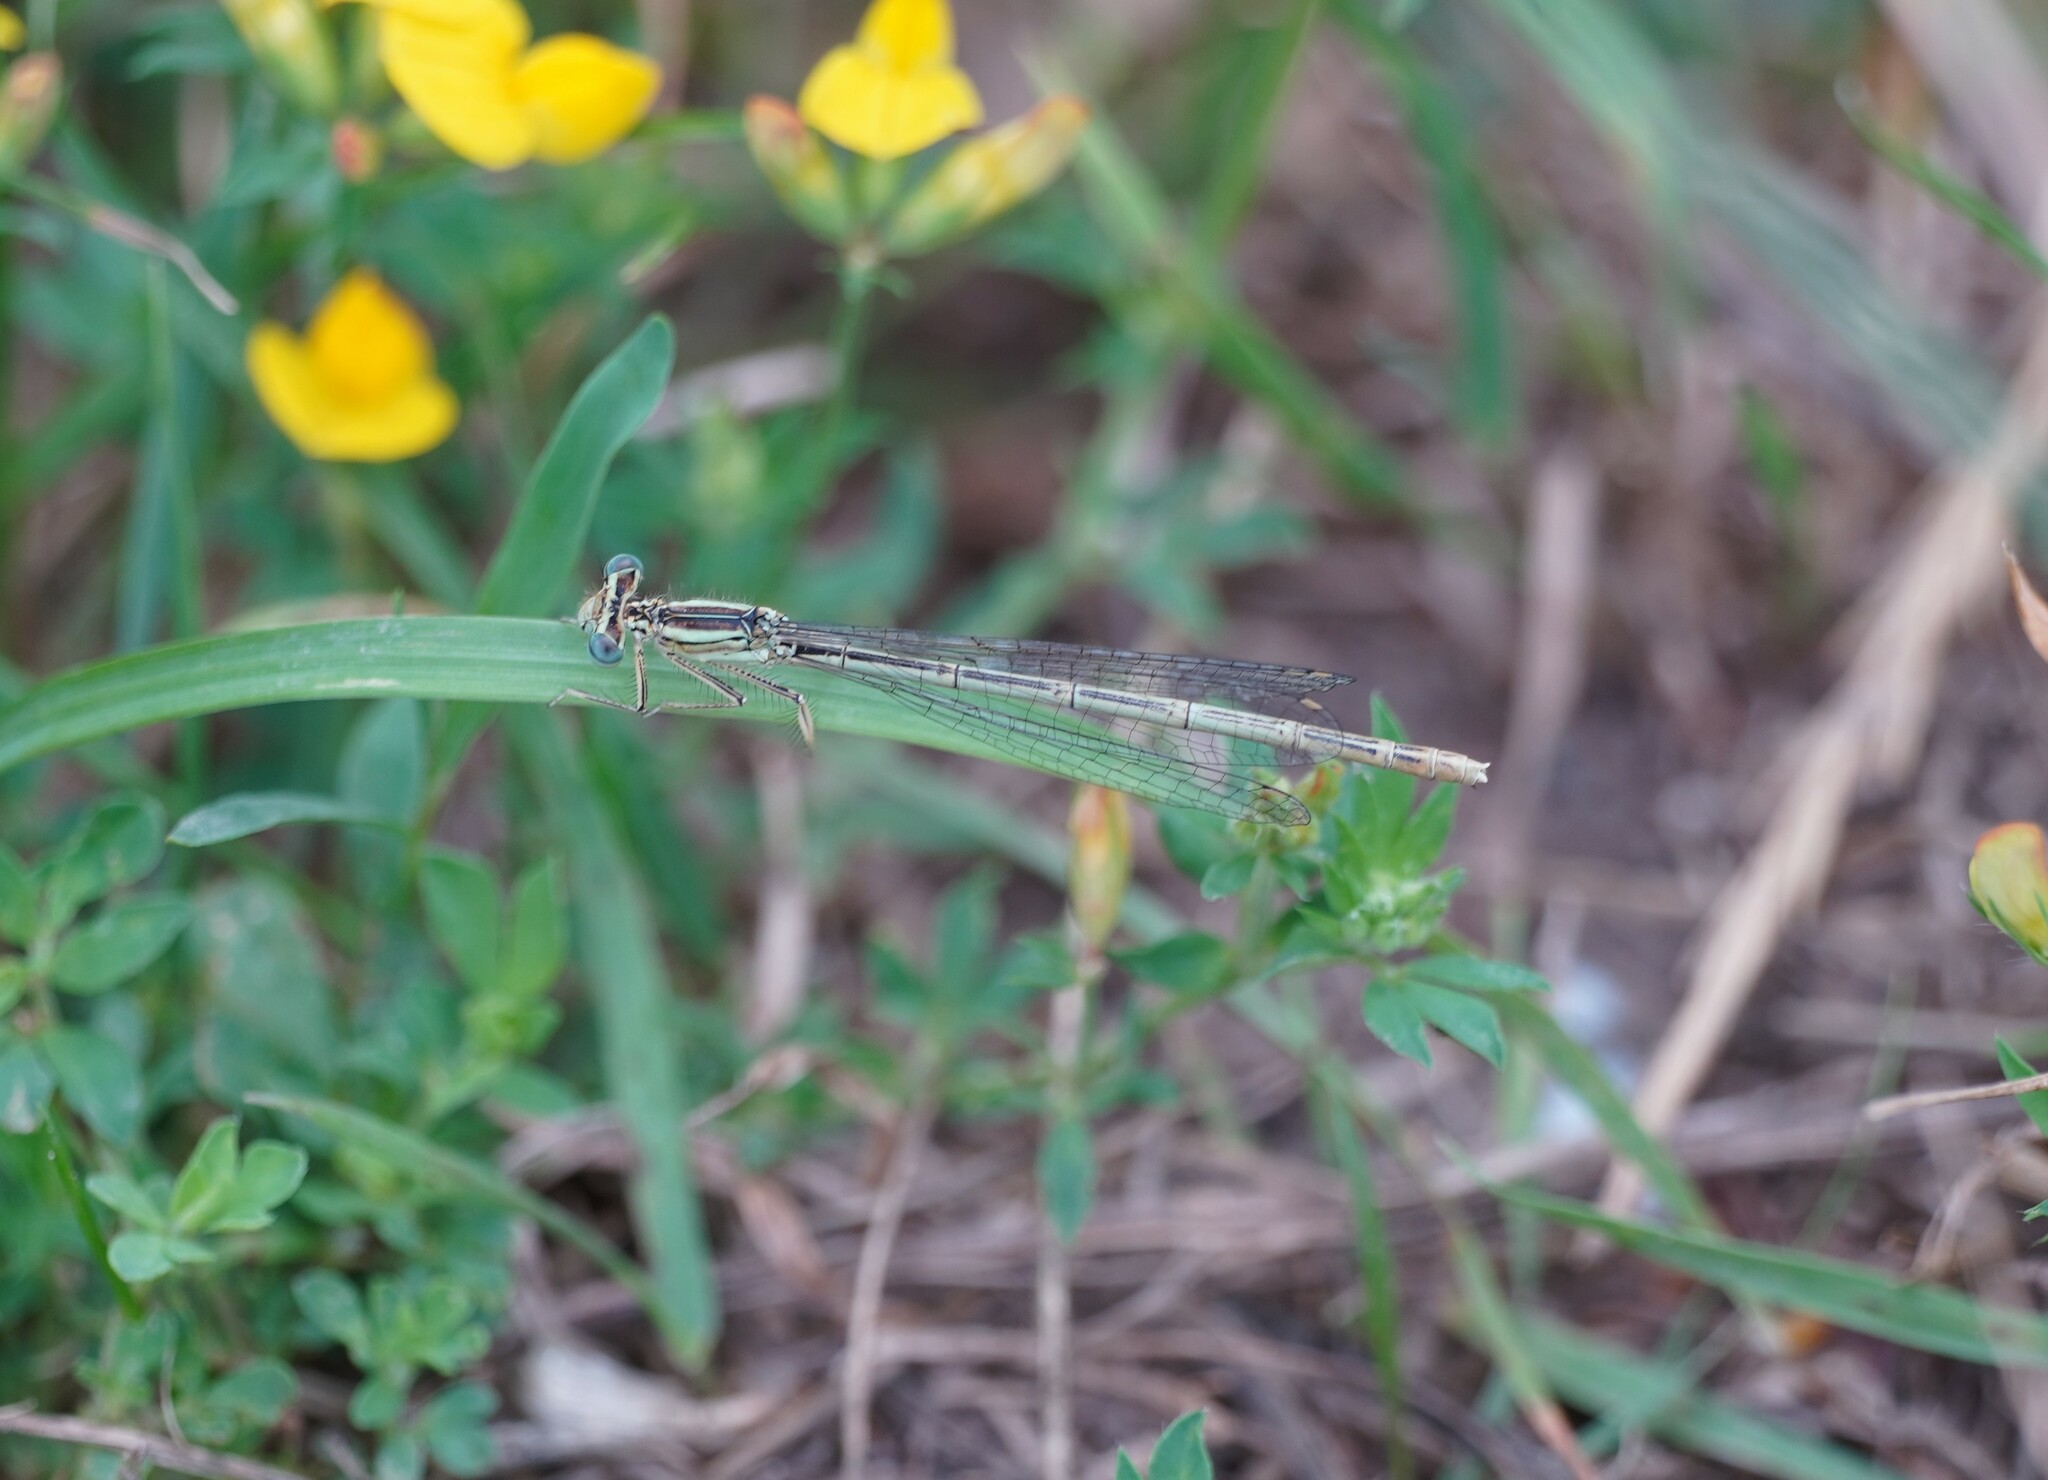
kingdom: Animalia
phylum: Arthropoda
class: Insecta
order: Odonata
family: Platycnemididae
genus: Platycnemis
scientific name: Platycnemis pennipes
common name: White-legged damselfly
